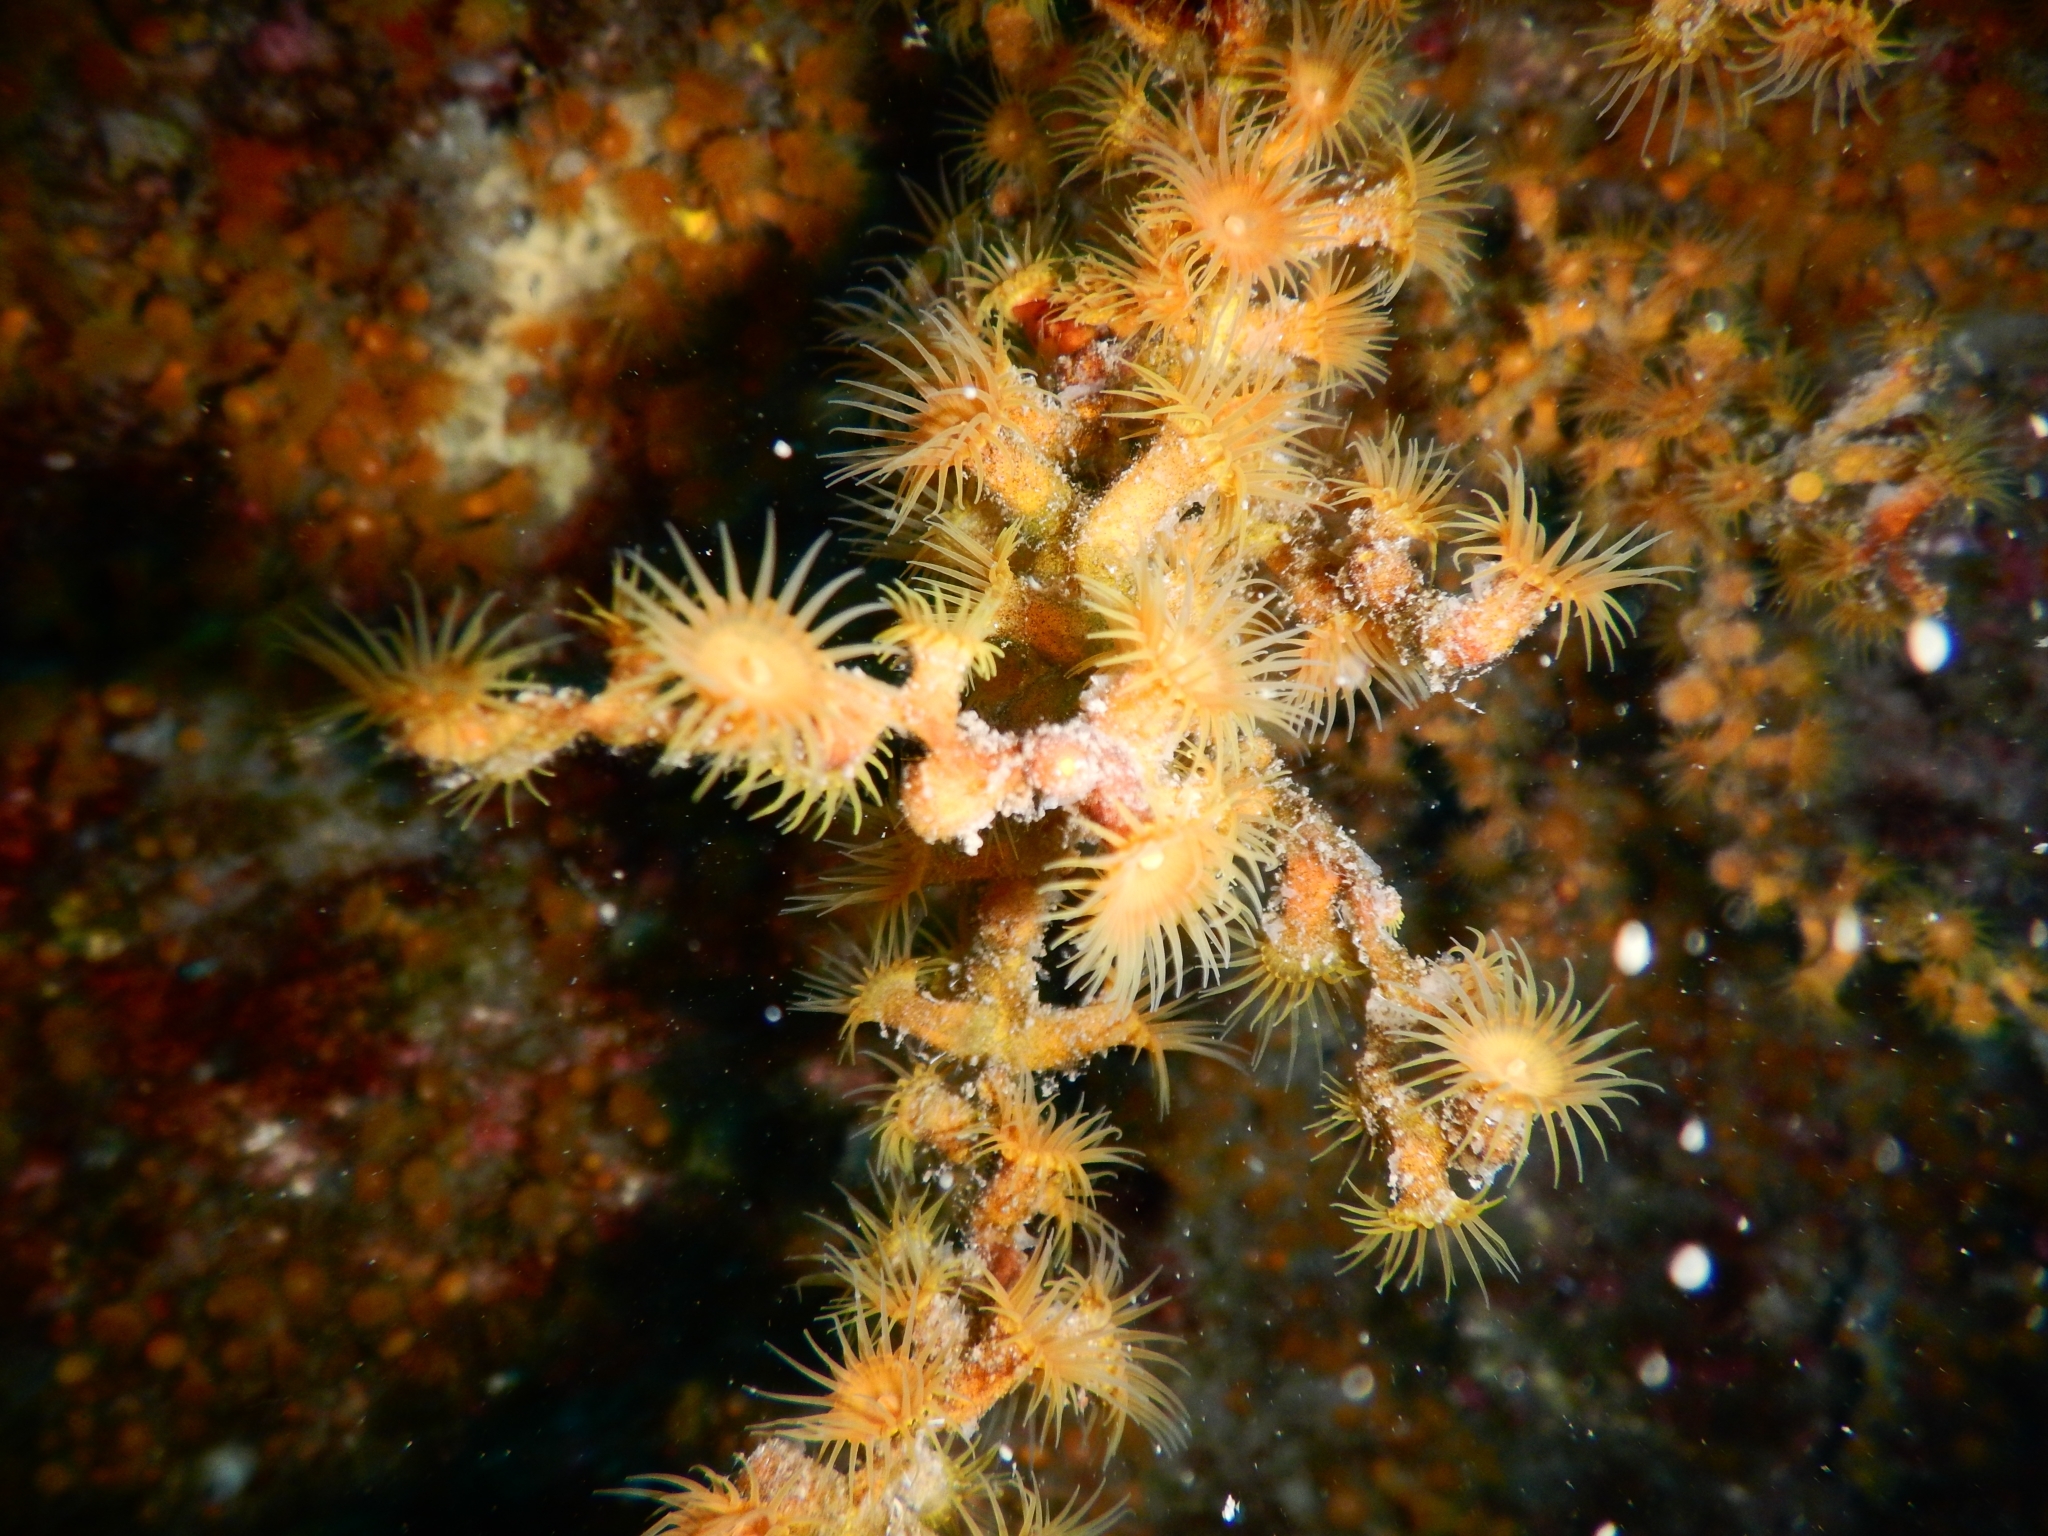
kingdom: Animalia
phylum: Cnidaria
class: Anthozoa
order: Zoantharia
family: Parazoanthidae
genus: Antipathozoanthus
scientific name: Antipathozoanthus macaronesicus
